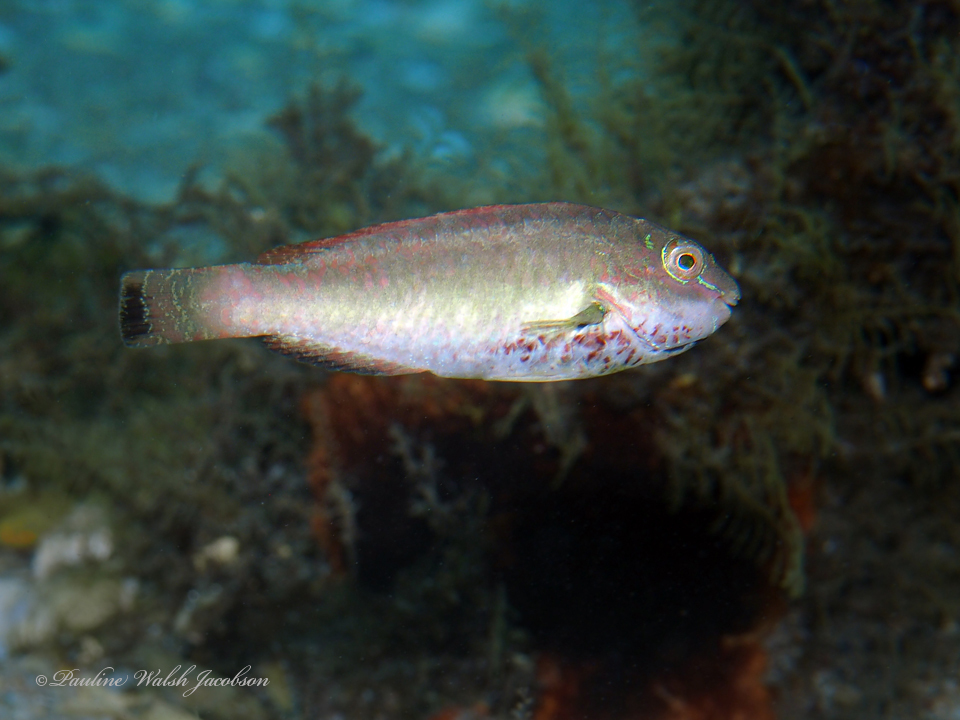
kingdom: Animalia
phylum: Chordata
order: Perciformes
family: Scaridae
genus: Sparisoma
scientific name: Sparisoma radians
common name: Bucktooth parrotfish
